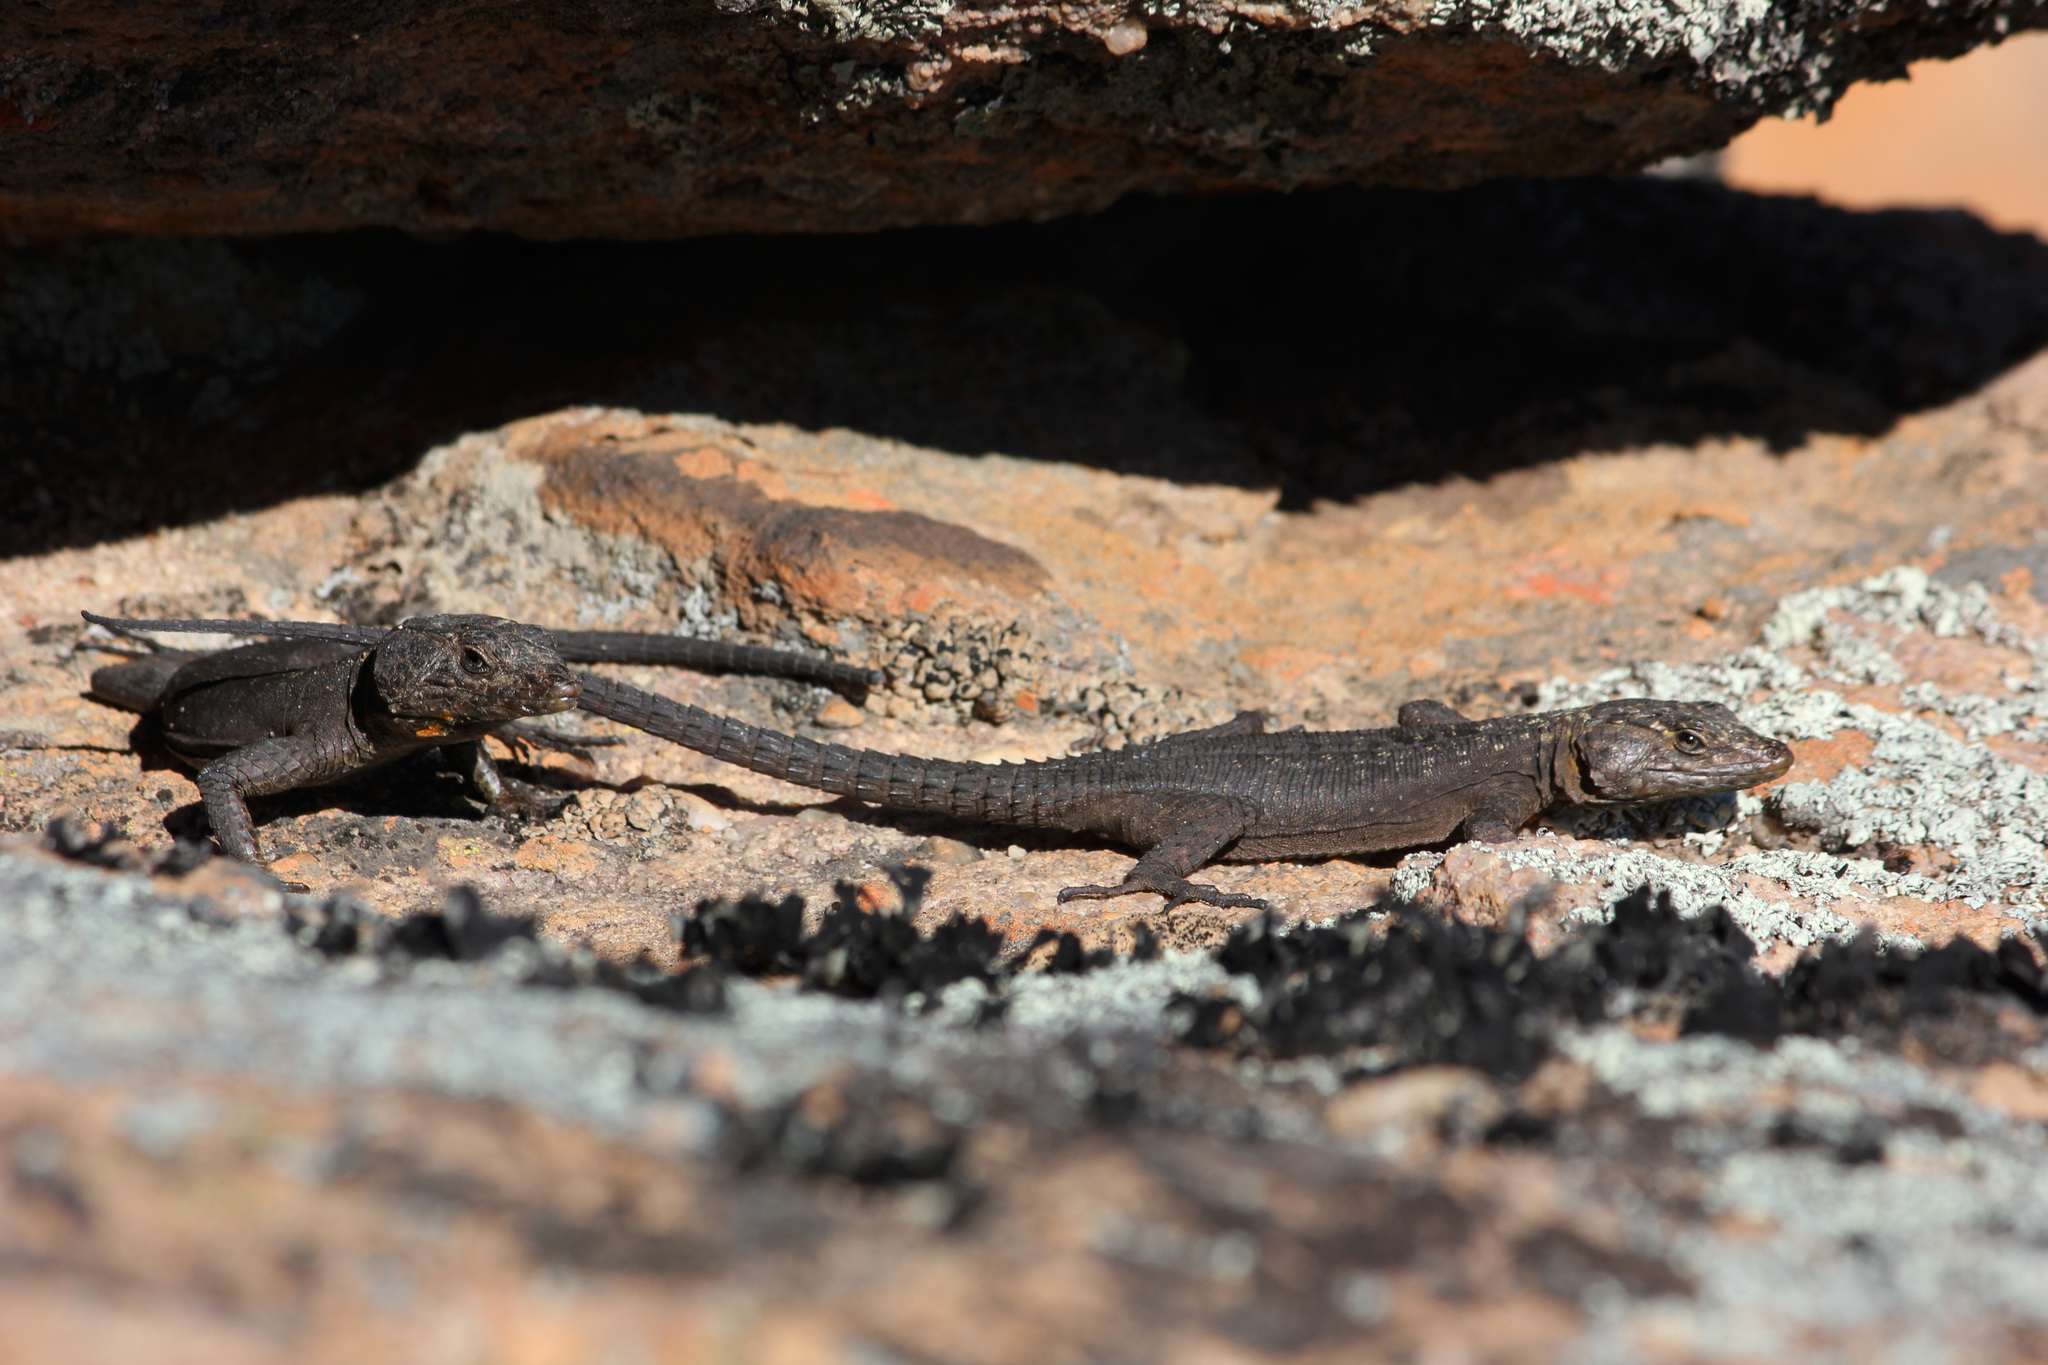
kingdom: Animalia
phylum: Chordata
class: Squamata
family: Cordylidae
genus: Hemicordylus
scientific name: Hemicordylus capensis
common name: Graceful crag lizard
